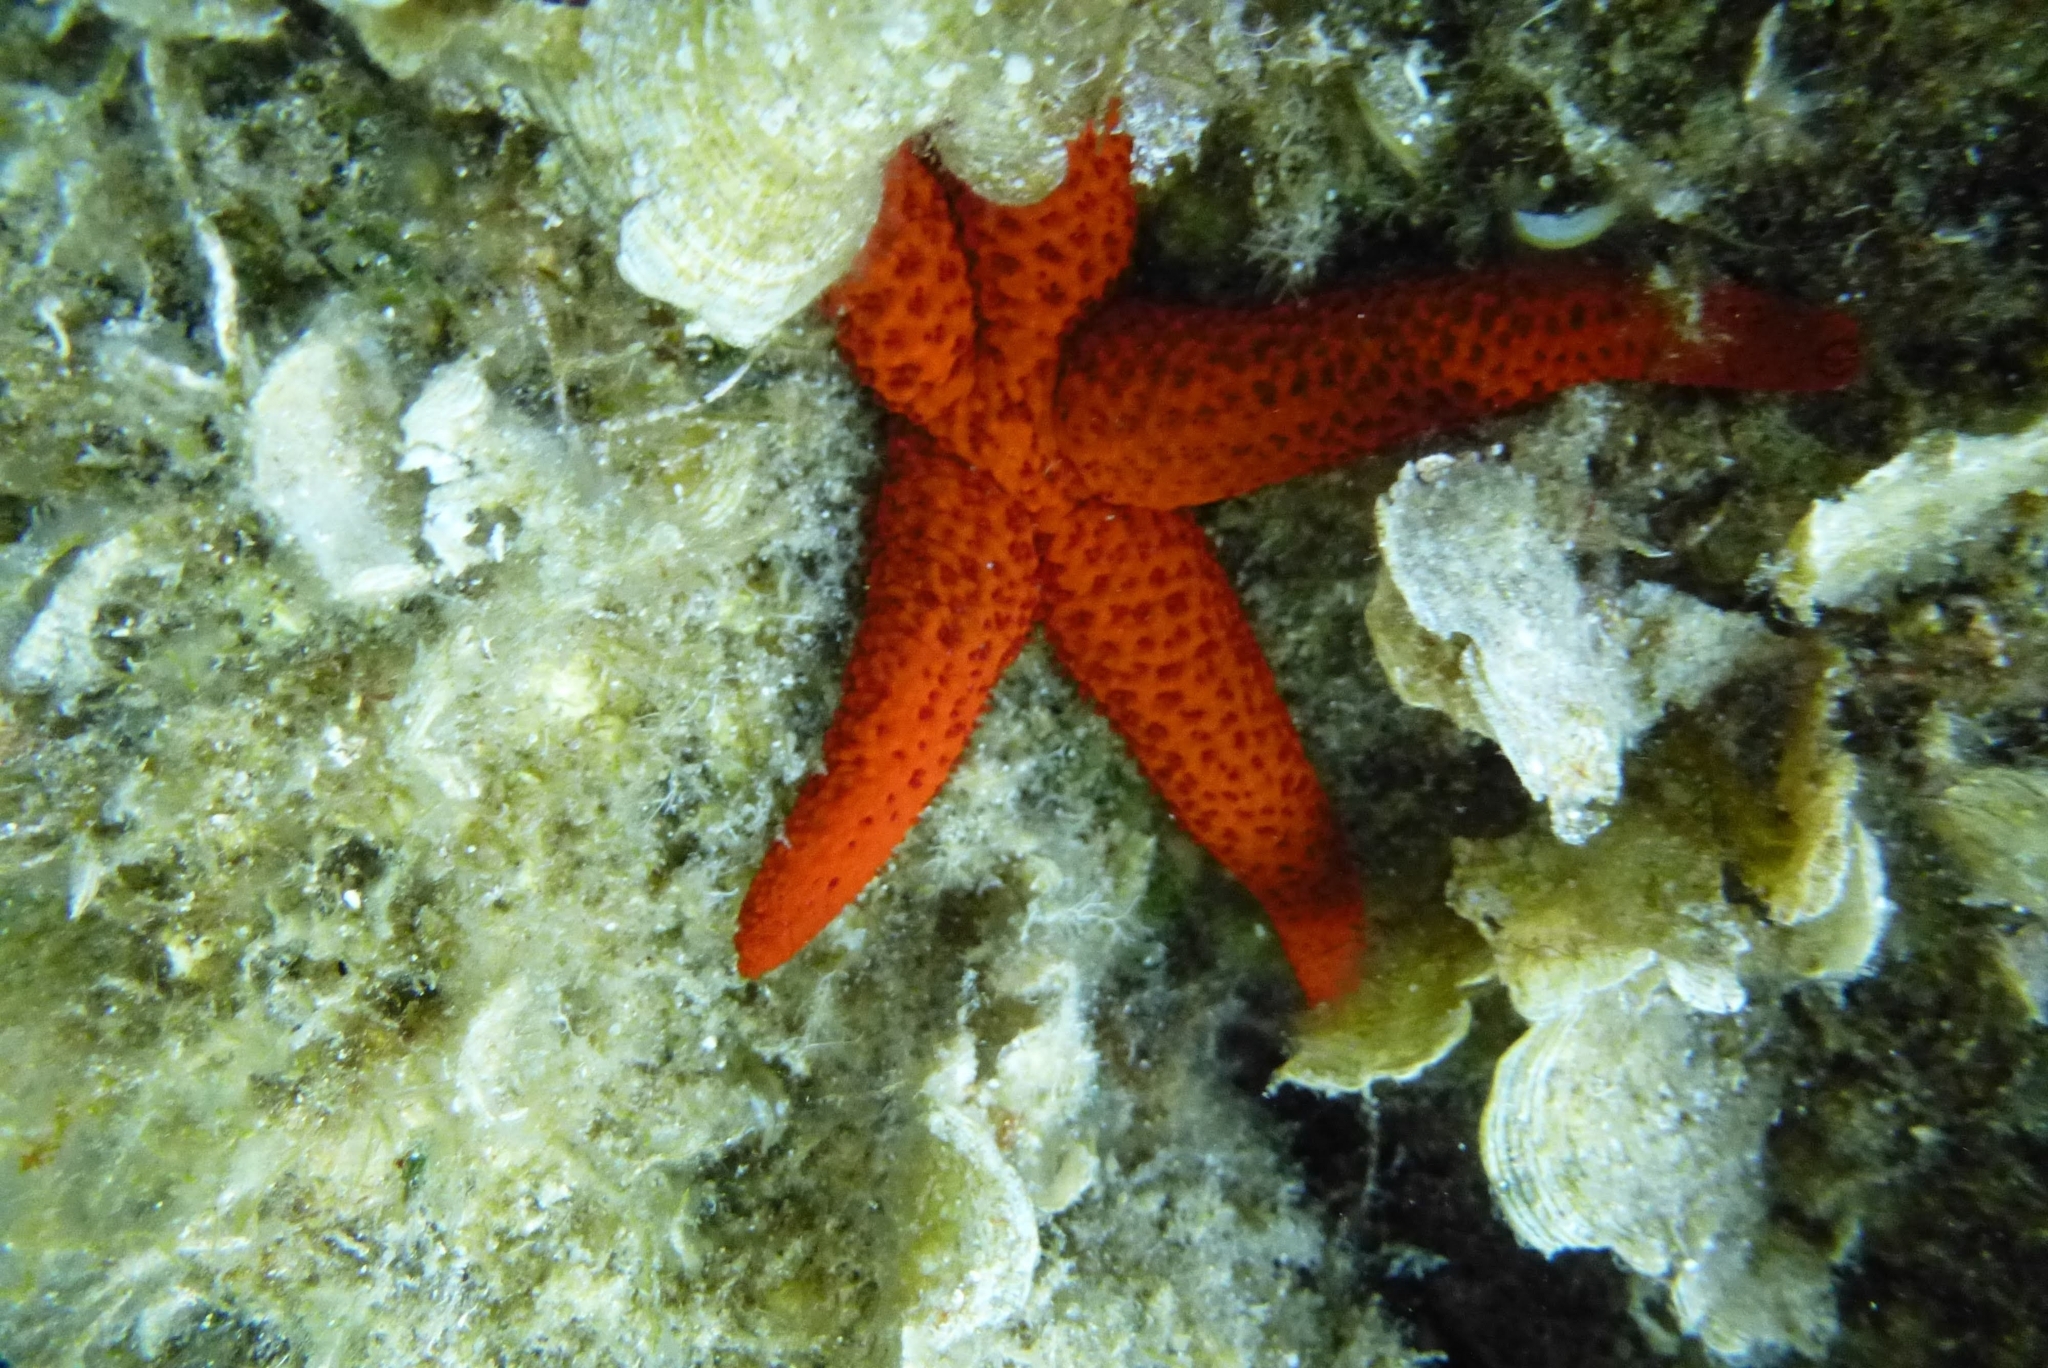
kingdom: Animalia
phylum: Echinodermata
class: Asteroidea
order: Spinulosida
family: Echinasteridae
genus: Echinaster
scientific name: Echinaster sepositus
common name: Red starfish
